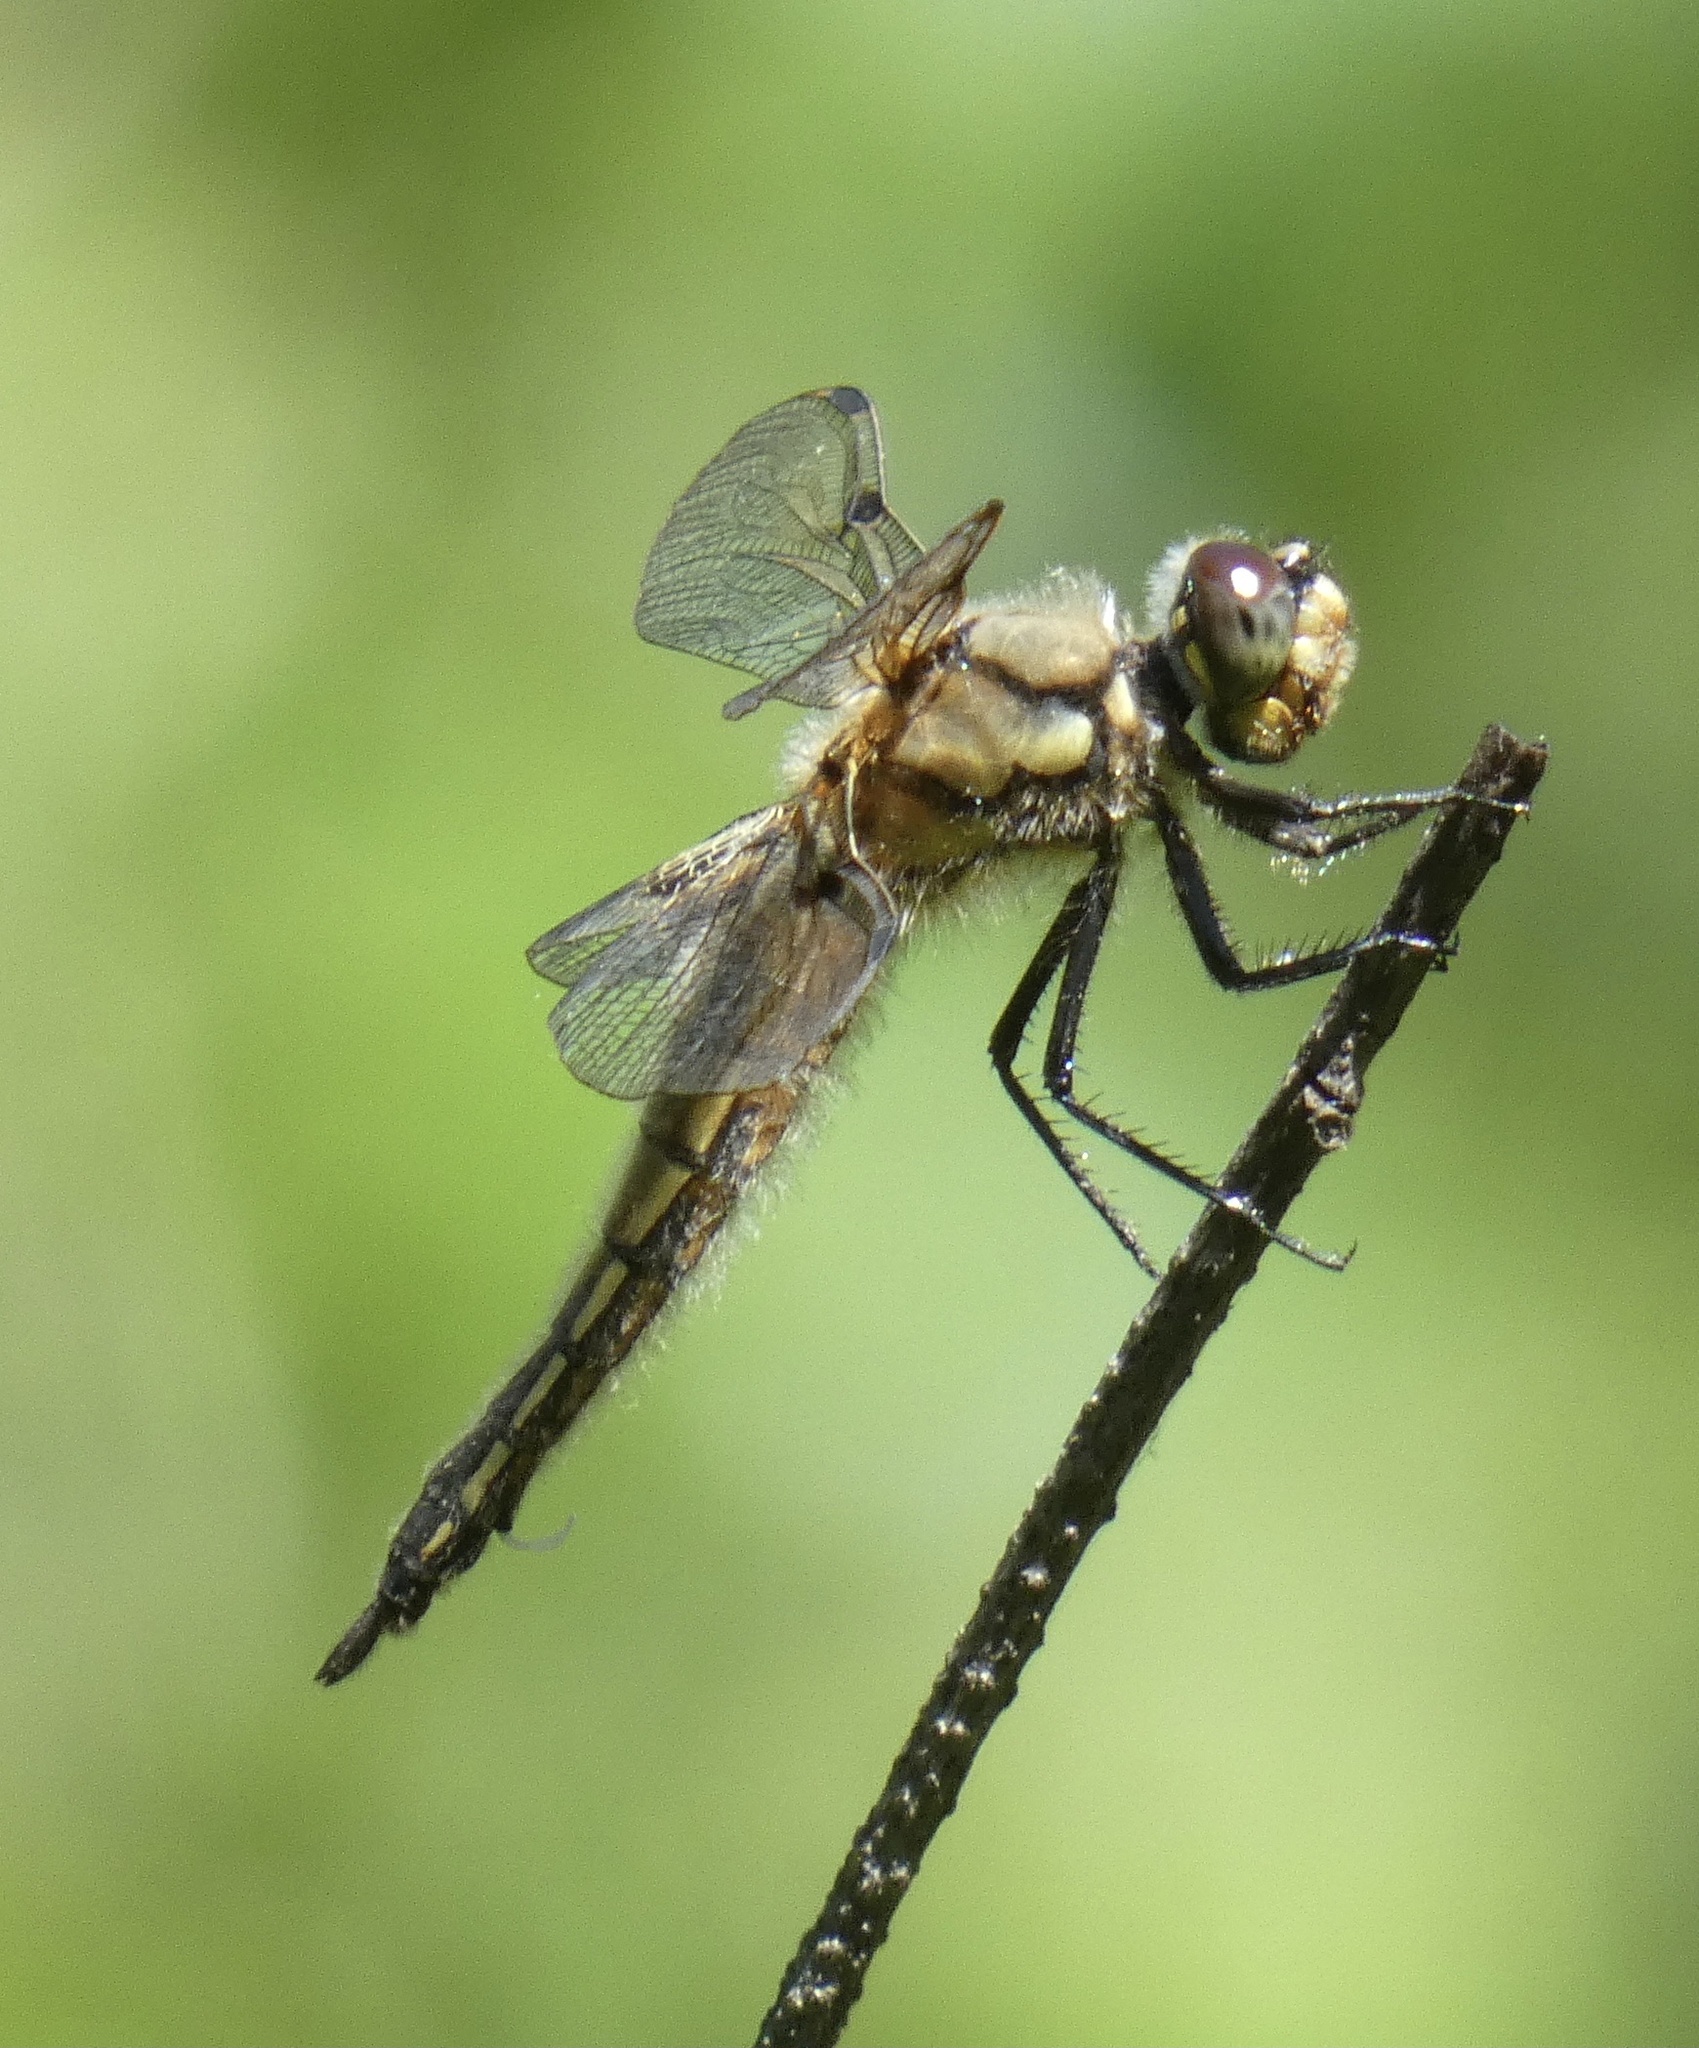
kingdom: Animalia
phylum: Arthropoda
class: Insecta
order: Odonata
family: Libellulidae
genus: Libellula
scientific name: Libellula quadrimaculata
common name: Four-spotted chaser
